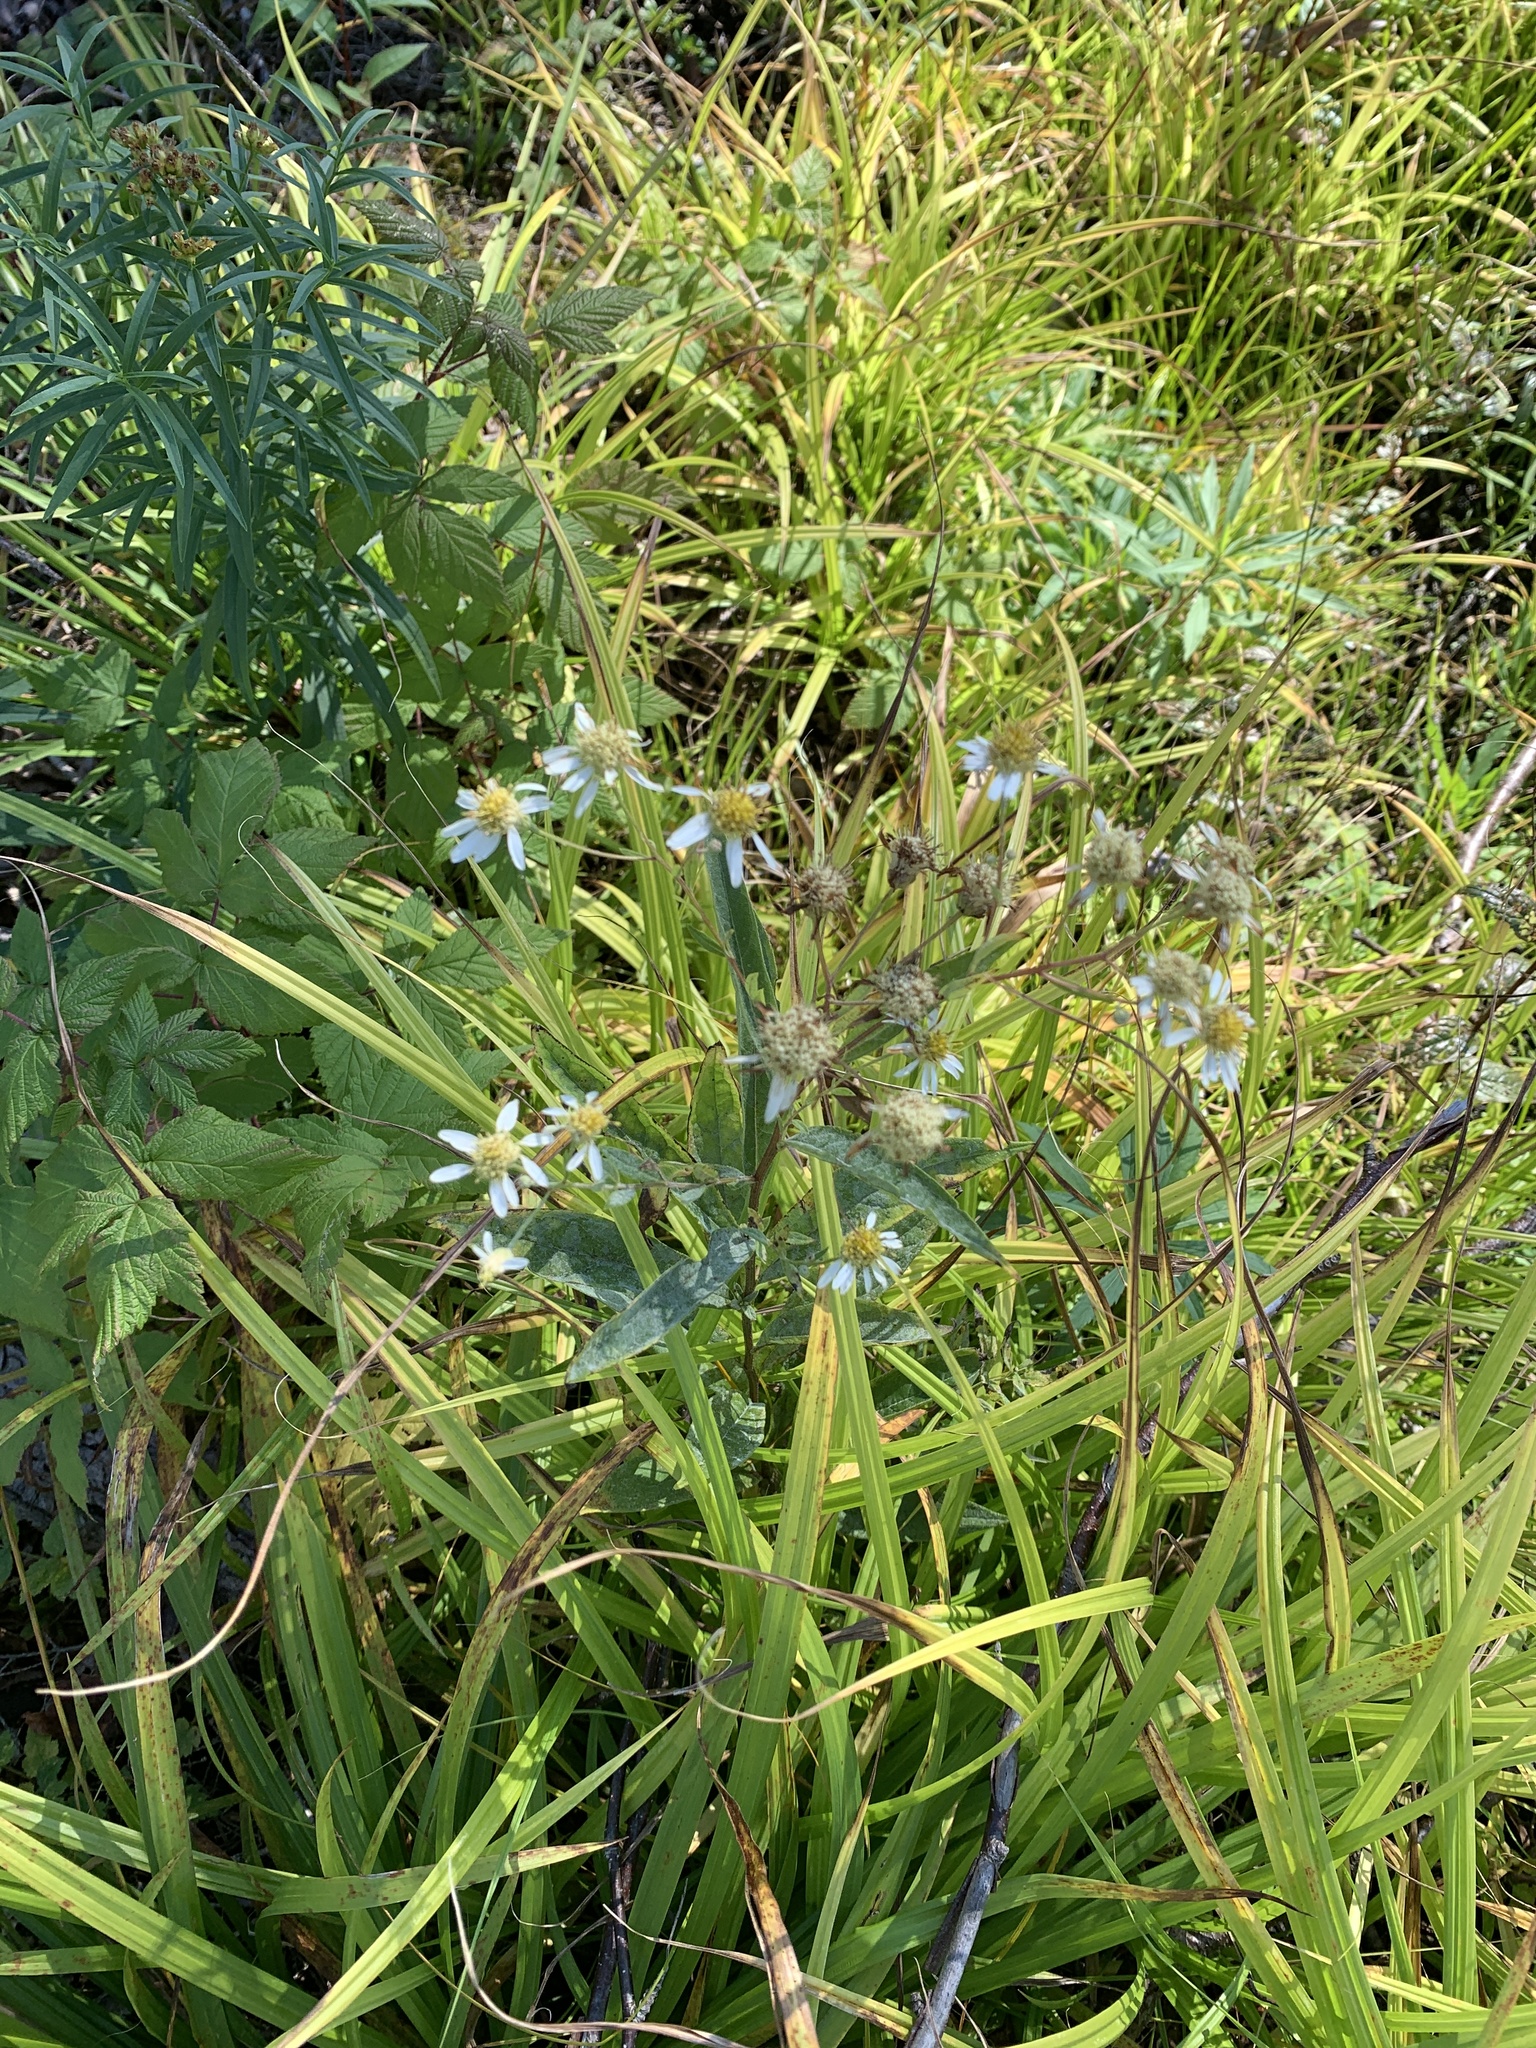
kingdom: Plantae
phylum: Tracheophyta
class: Magnoliopsida
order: Asterales
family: Asteraceae
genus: Doellingeria
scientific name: Doellingeria umbellata
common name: Flat-top white aster
